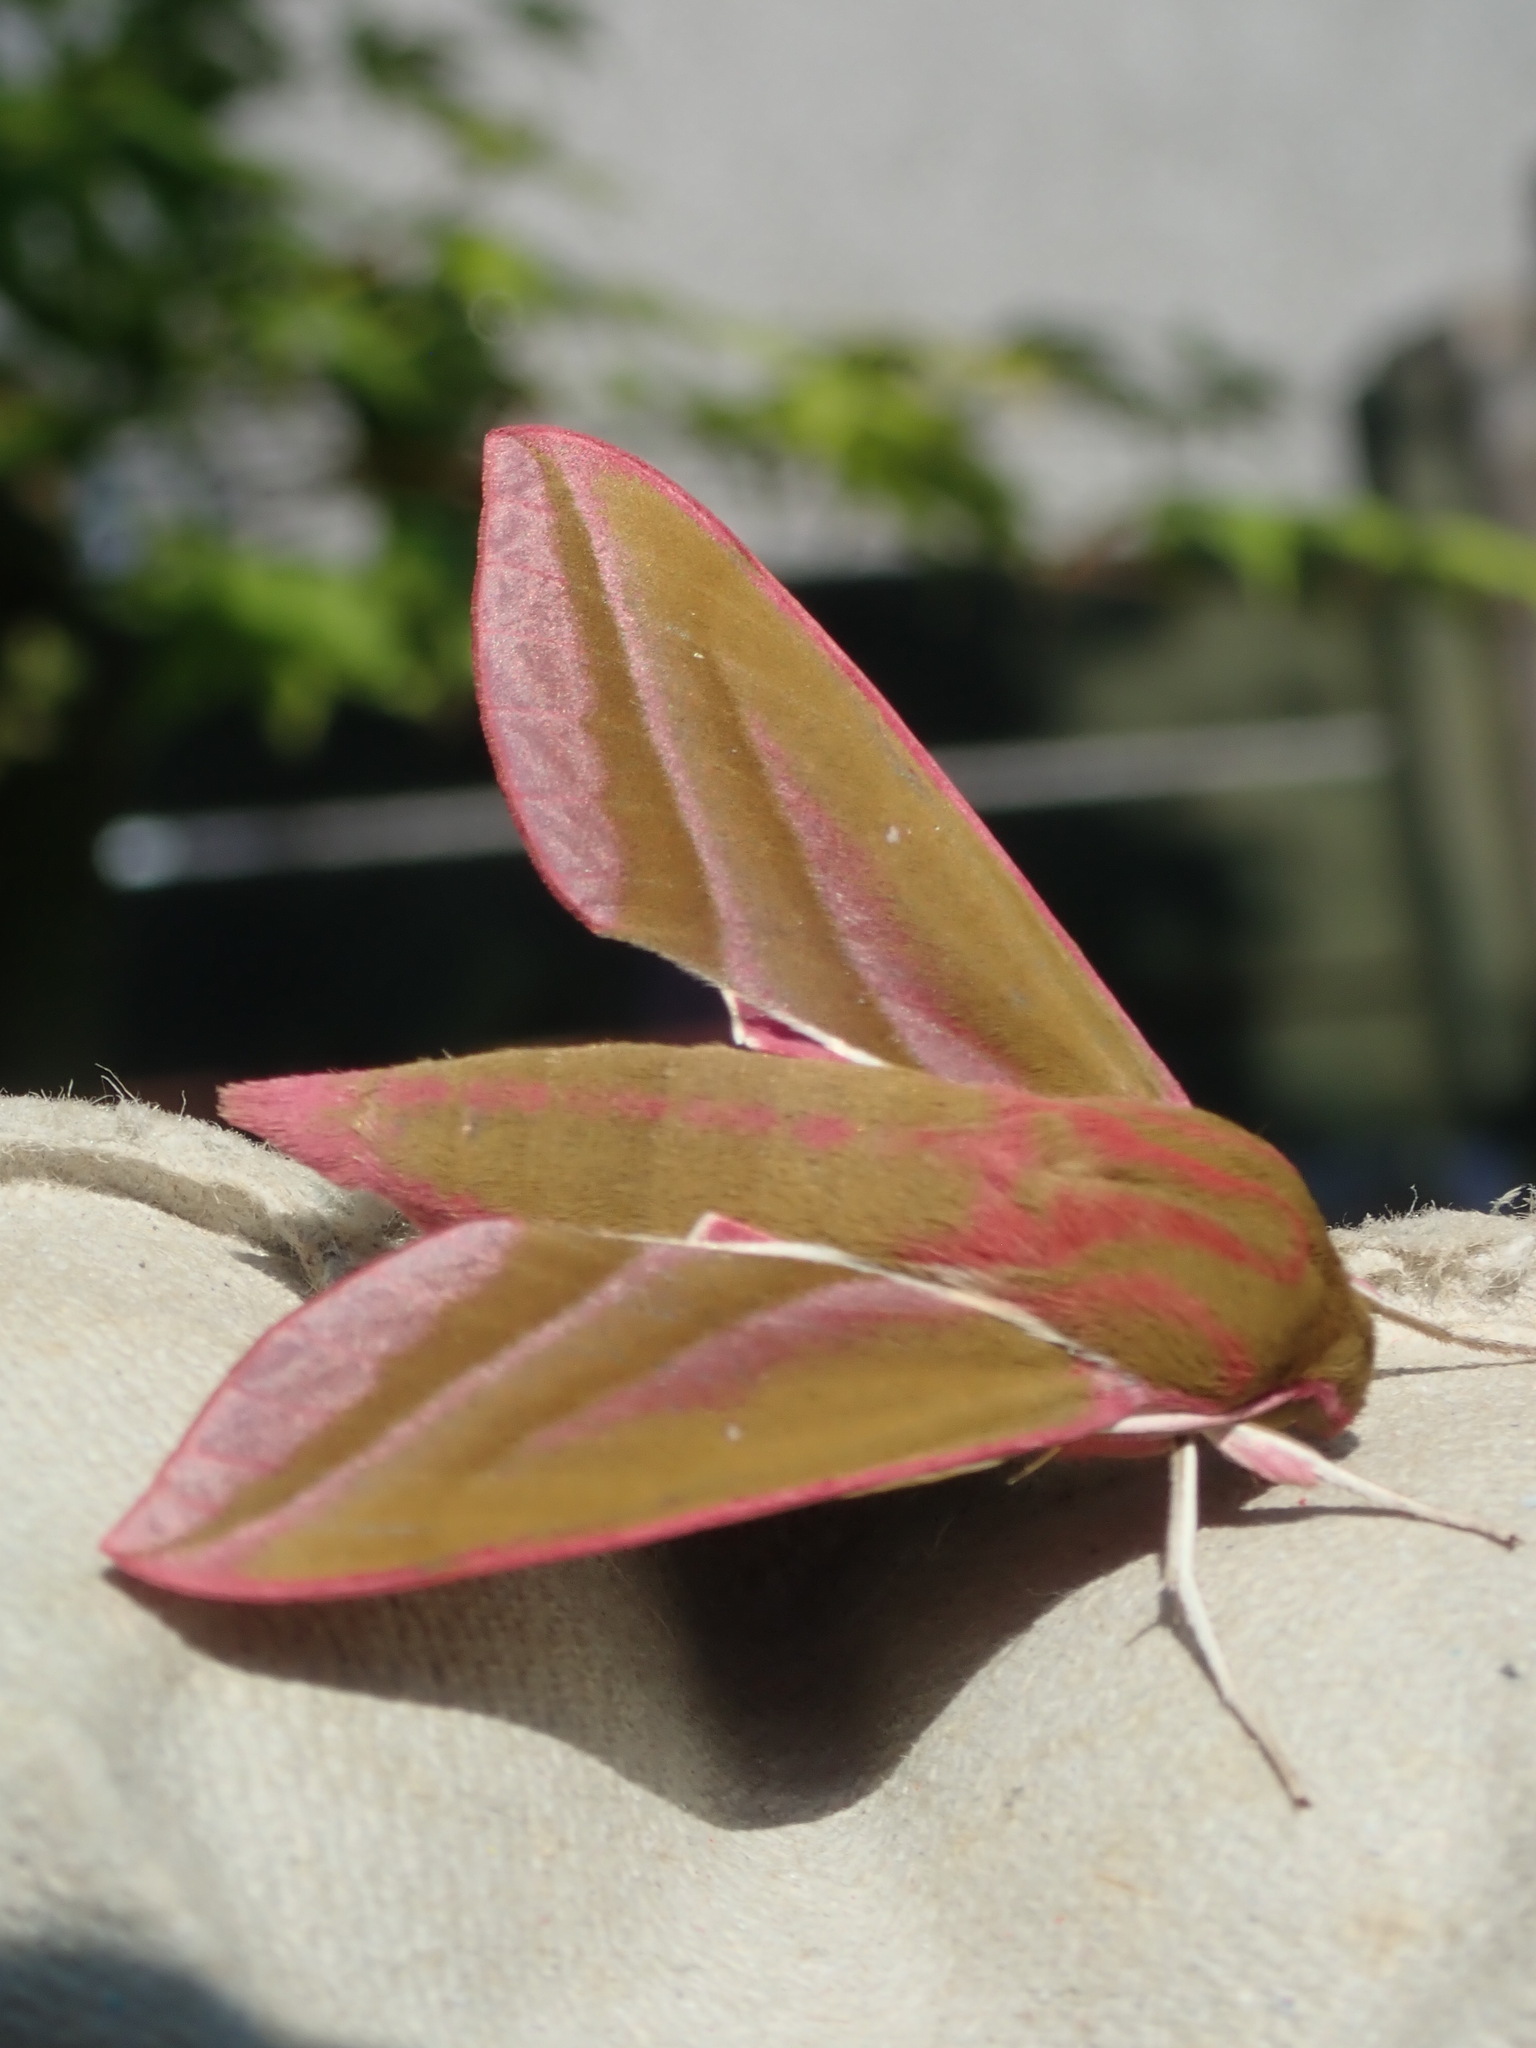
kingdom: Animalia
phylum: Arthropoda
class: Insecta
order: Lepidoptera
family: Sphingidae
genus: Deilephila
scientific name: Deilephila elpenor
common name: Elephant hawk-moth
